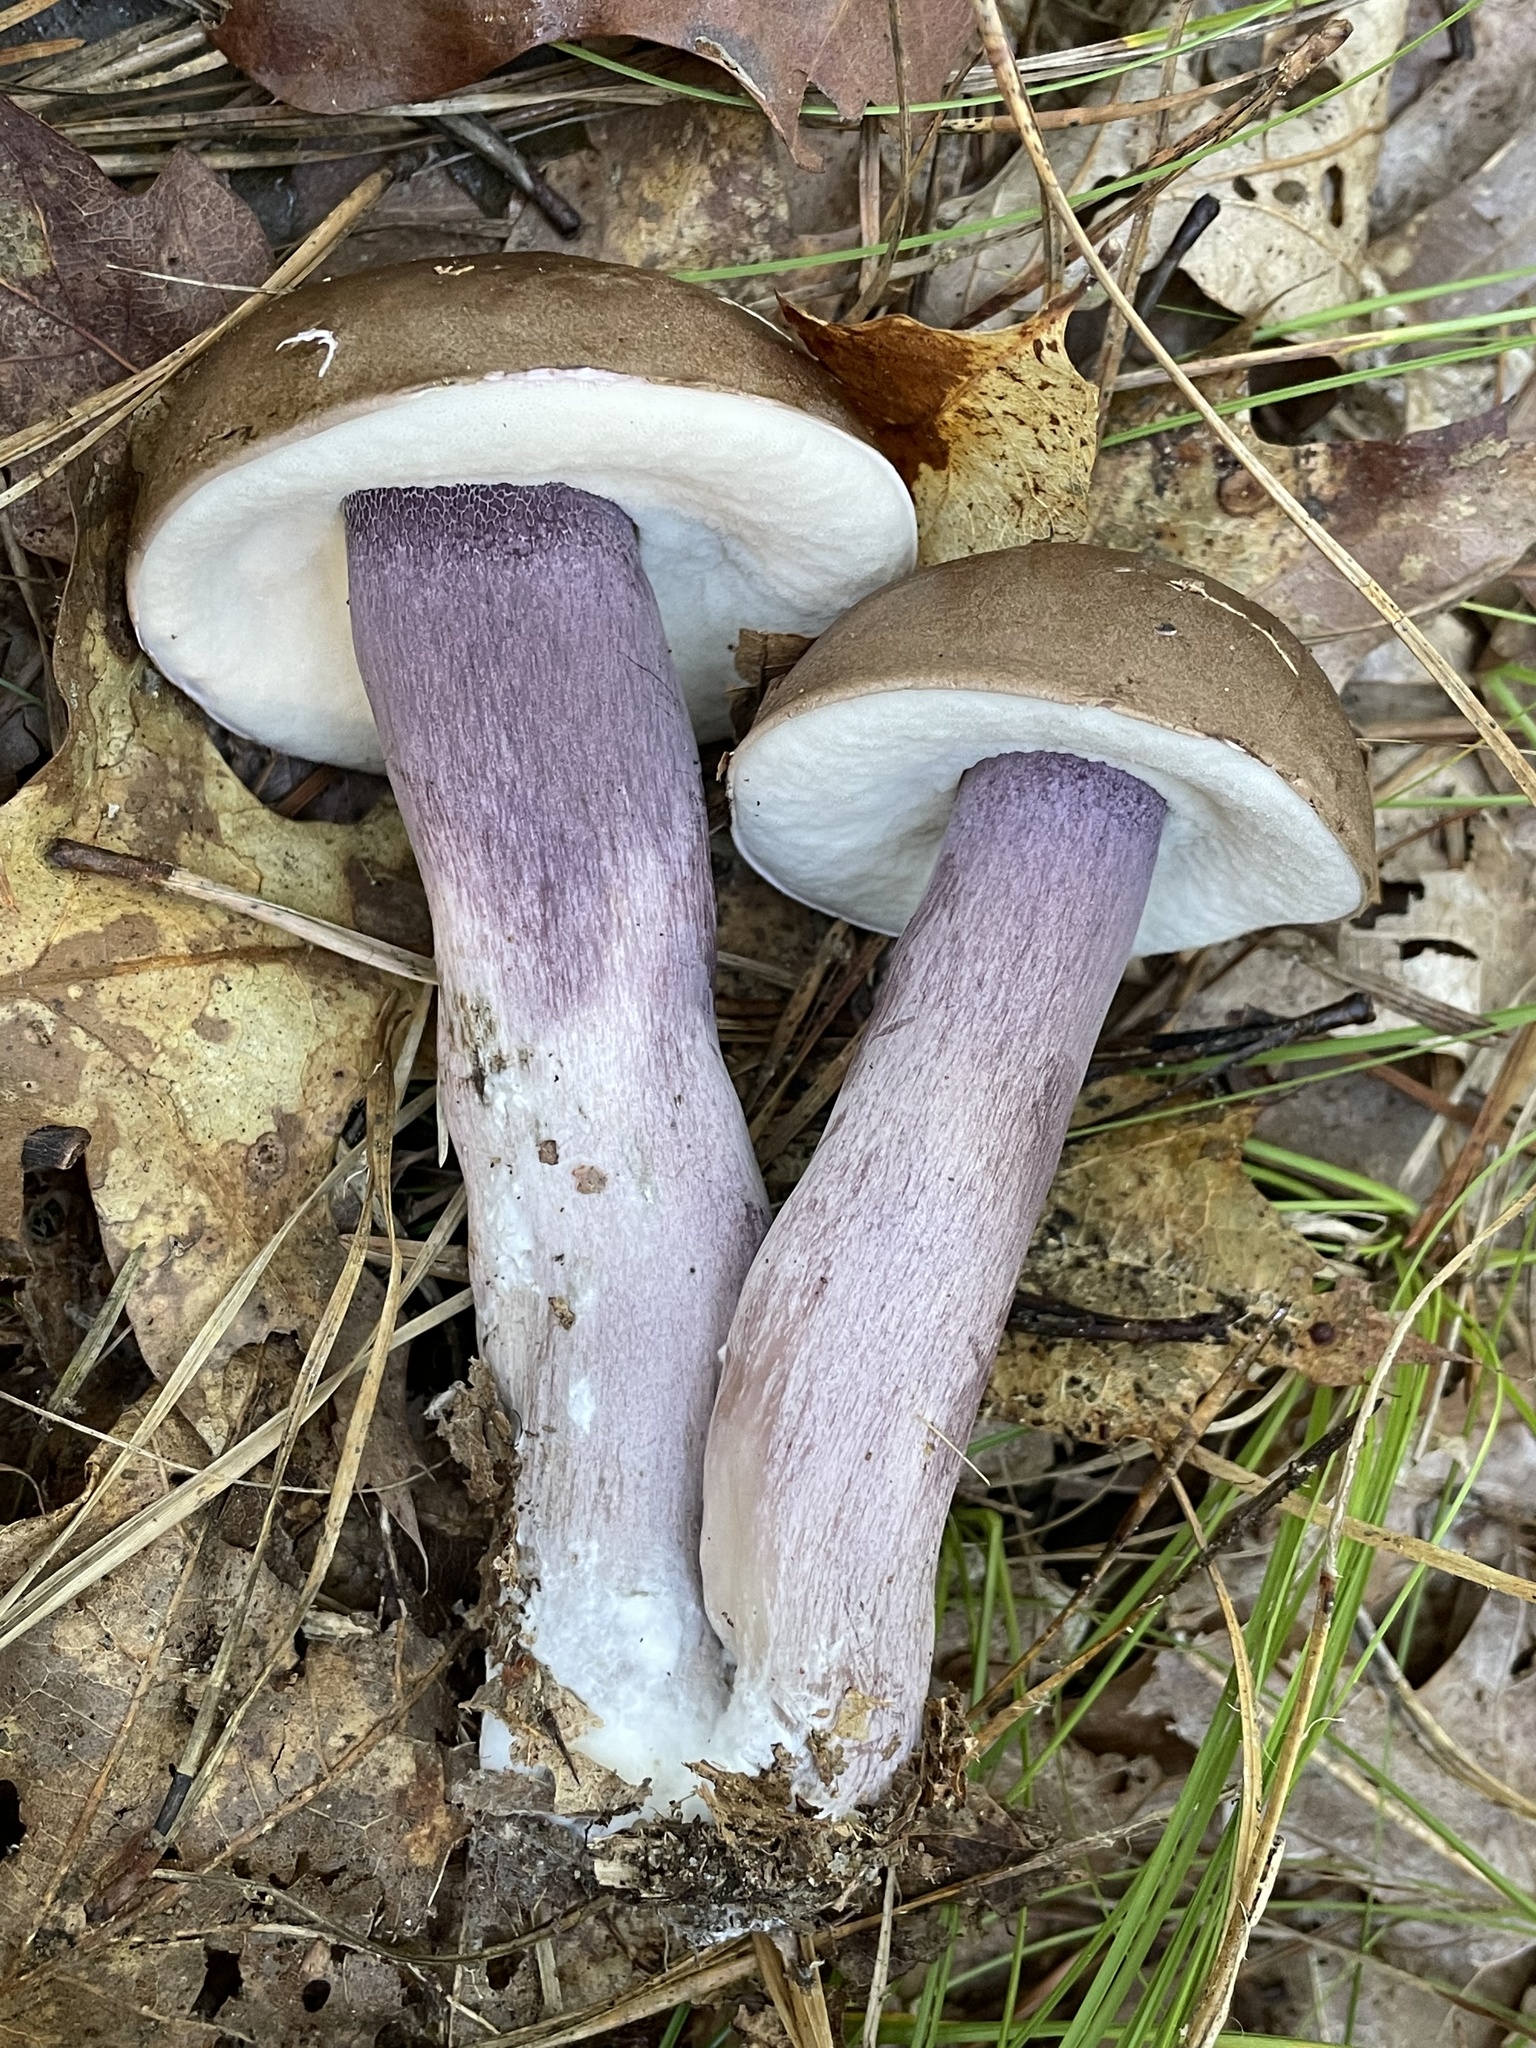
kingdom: Fungi
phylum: Basidiomycota
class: Agaricomycetes
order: Boletales
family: Boletaceae
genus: Tylopilus
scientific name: Tylopilus plumbeoviolaceus
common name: Violet gray bolete
